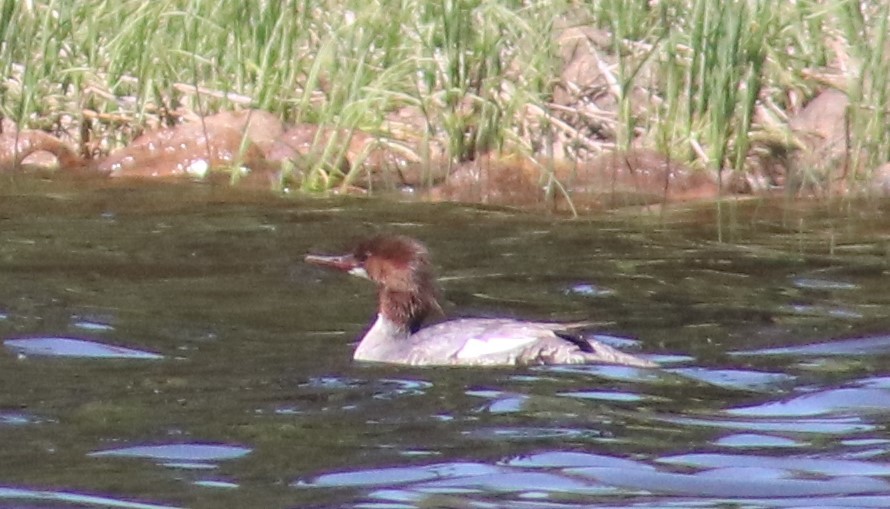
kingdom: Animalia
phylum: Chordata
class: Aves
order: Anseriformes
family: Anatidae
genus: Mergus
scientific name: Mergus merganser
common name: Common merganser
